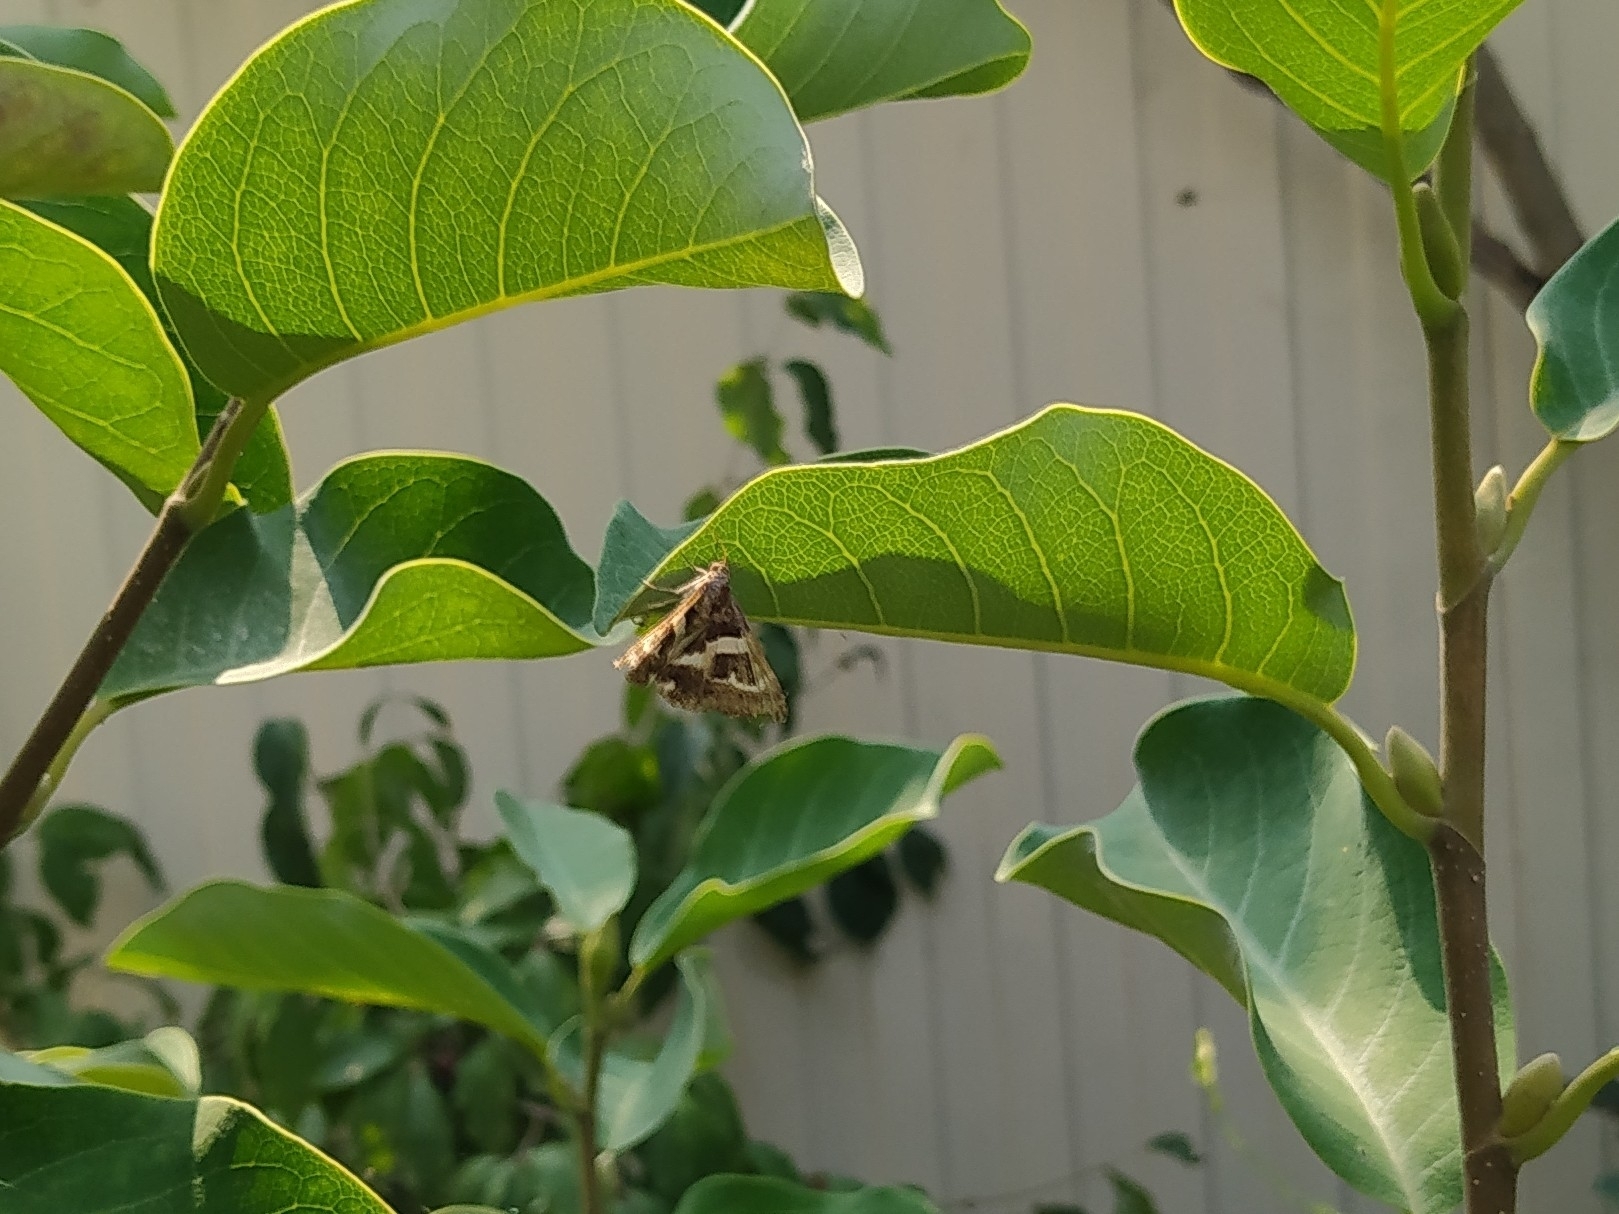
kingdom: Animalia
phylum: Arthropoda
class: Insecta
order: Lepidoptera
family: Erebidae
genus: Grammodes
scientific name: Grammodes stolida
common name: Geometrician
